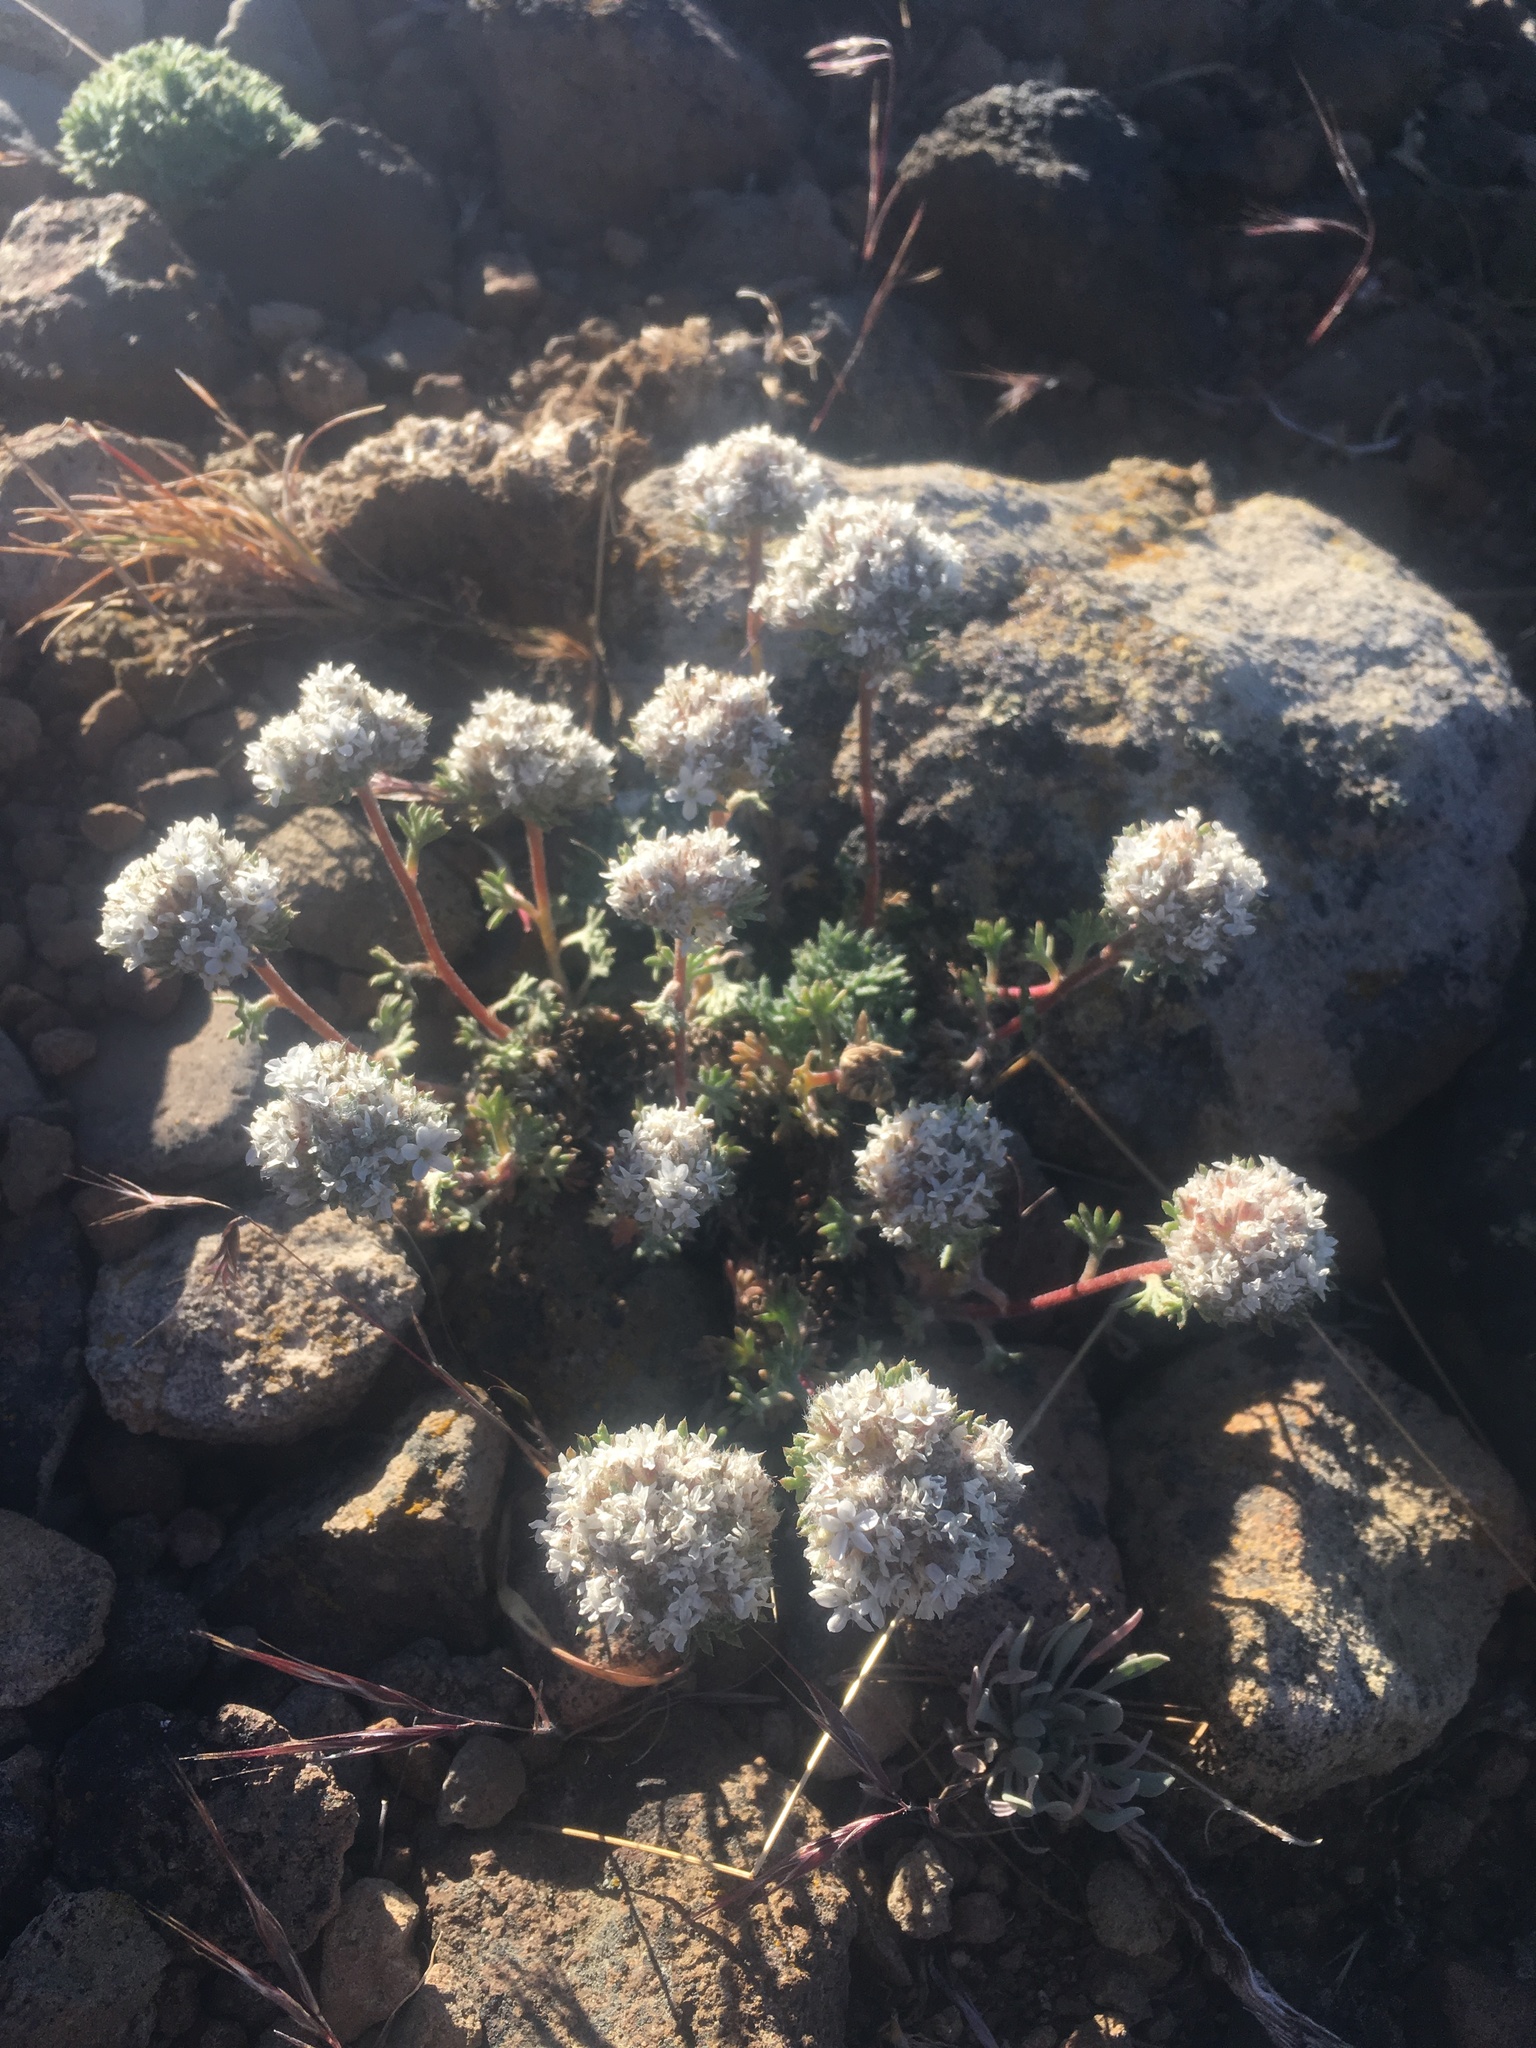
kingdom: Plantae
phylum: Tracheophyta
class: Magnoliopsida
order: Ericales
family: Polemoniaceae
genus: Ipomopsis
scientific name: Ipomopsis congesta
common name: Ball-head gilia
